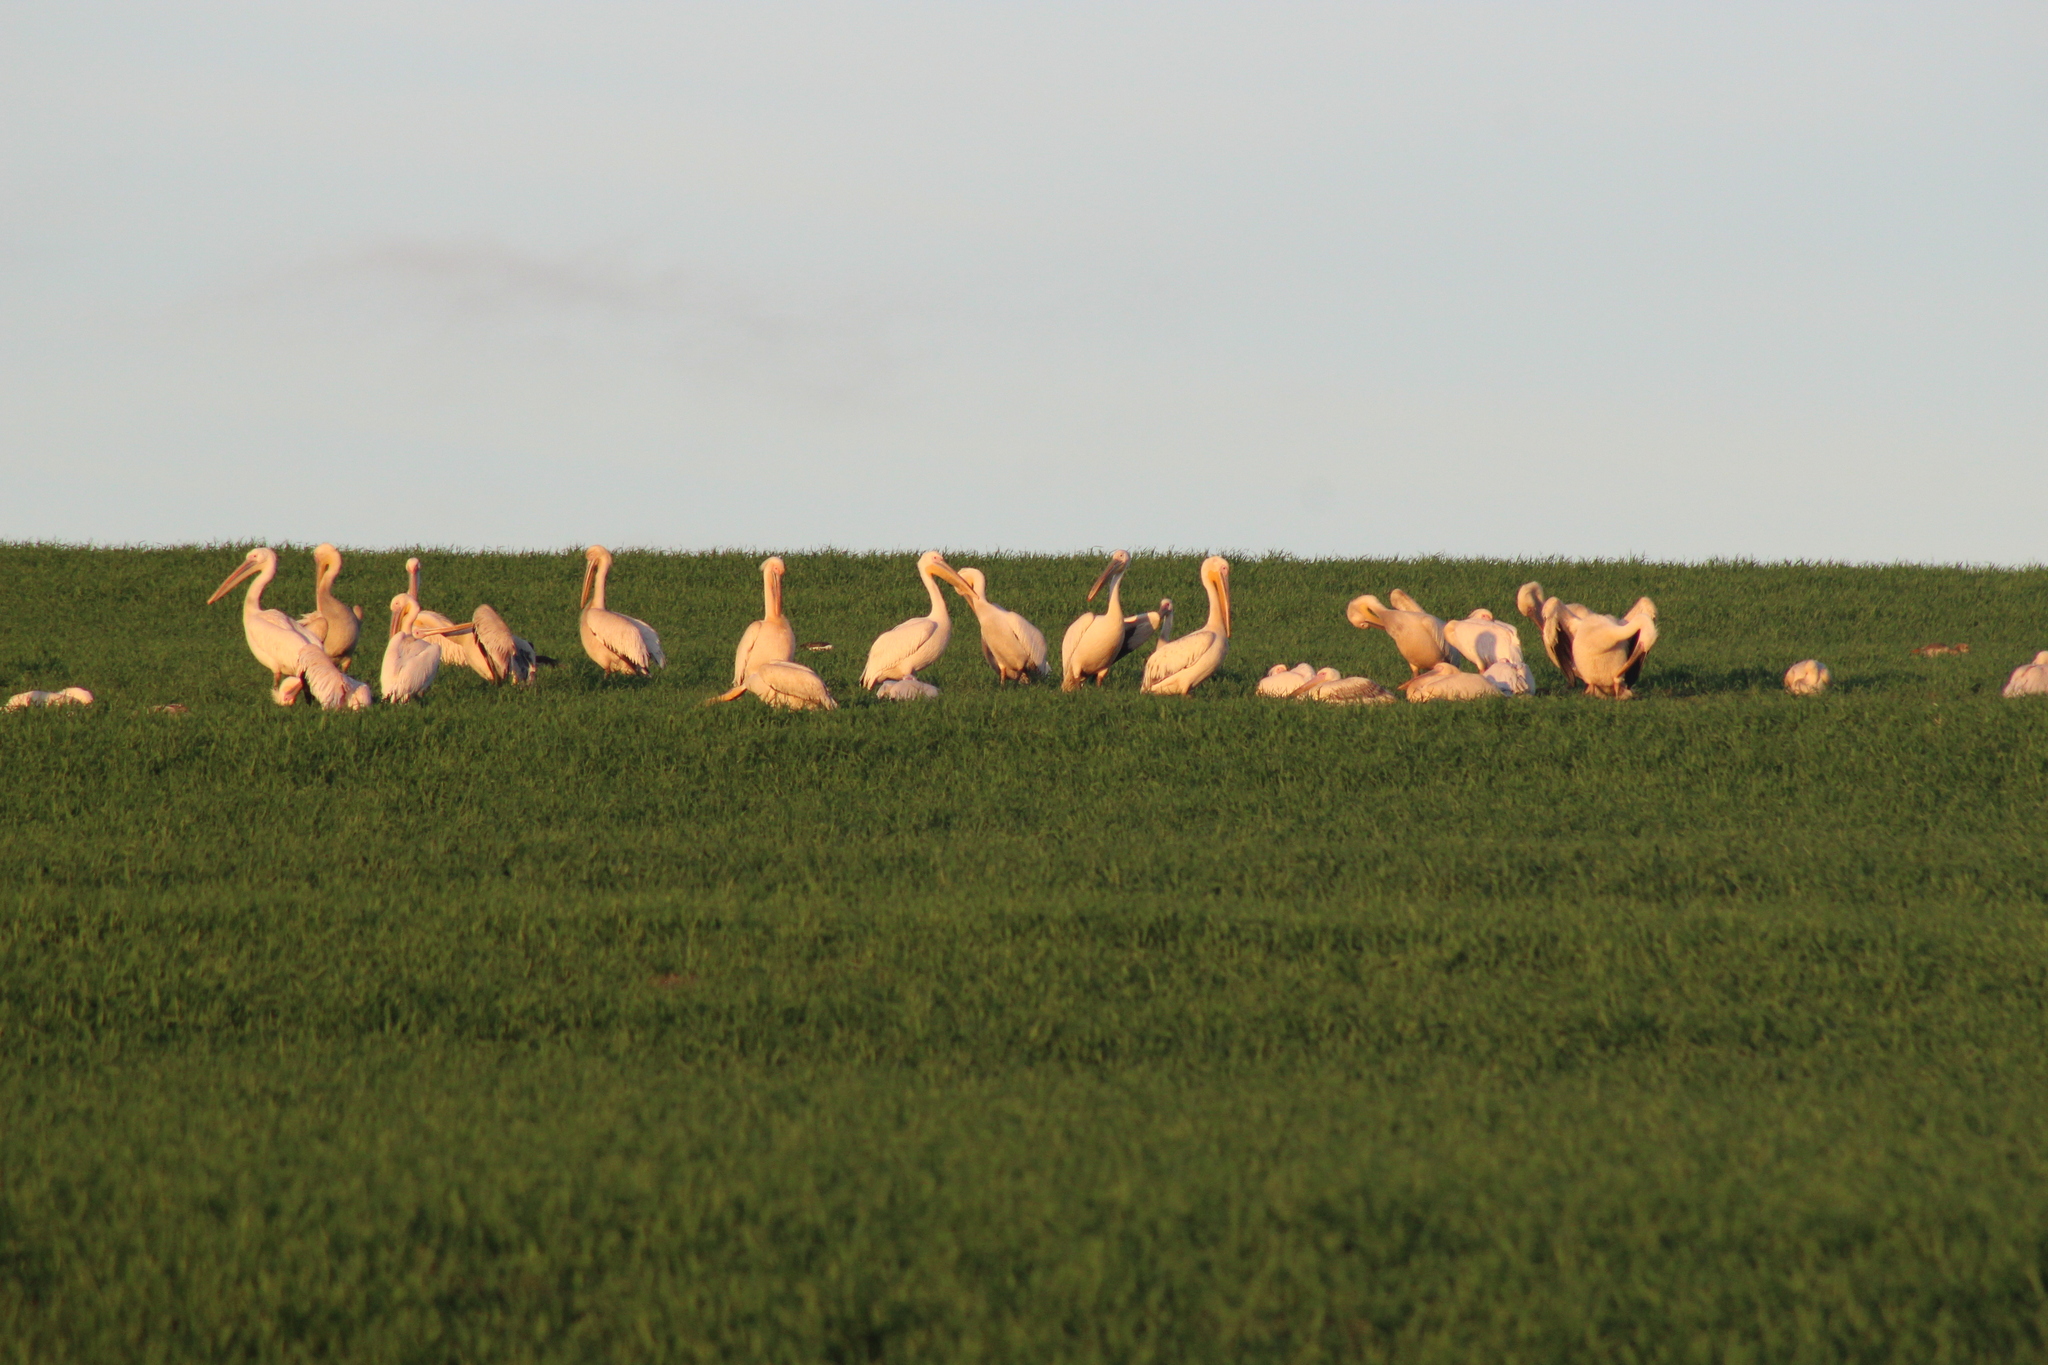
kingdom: Animalia
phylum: Chordata
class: Aves
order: Pelecaniformes
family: Pelecanidae
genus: Pelecanus
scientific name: Pelecanus onocrotalus
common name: Great white pelican
